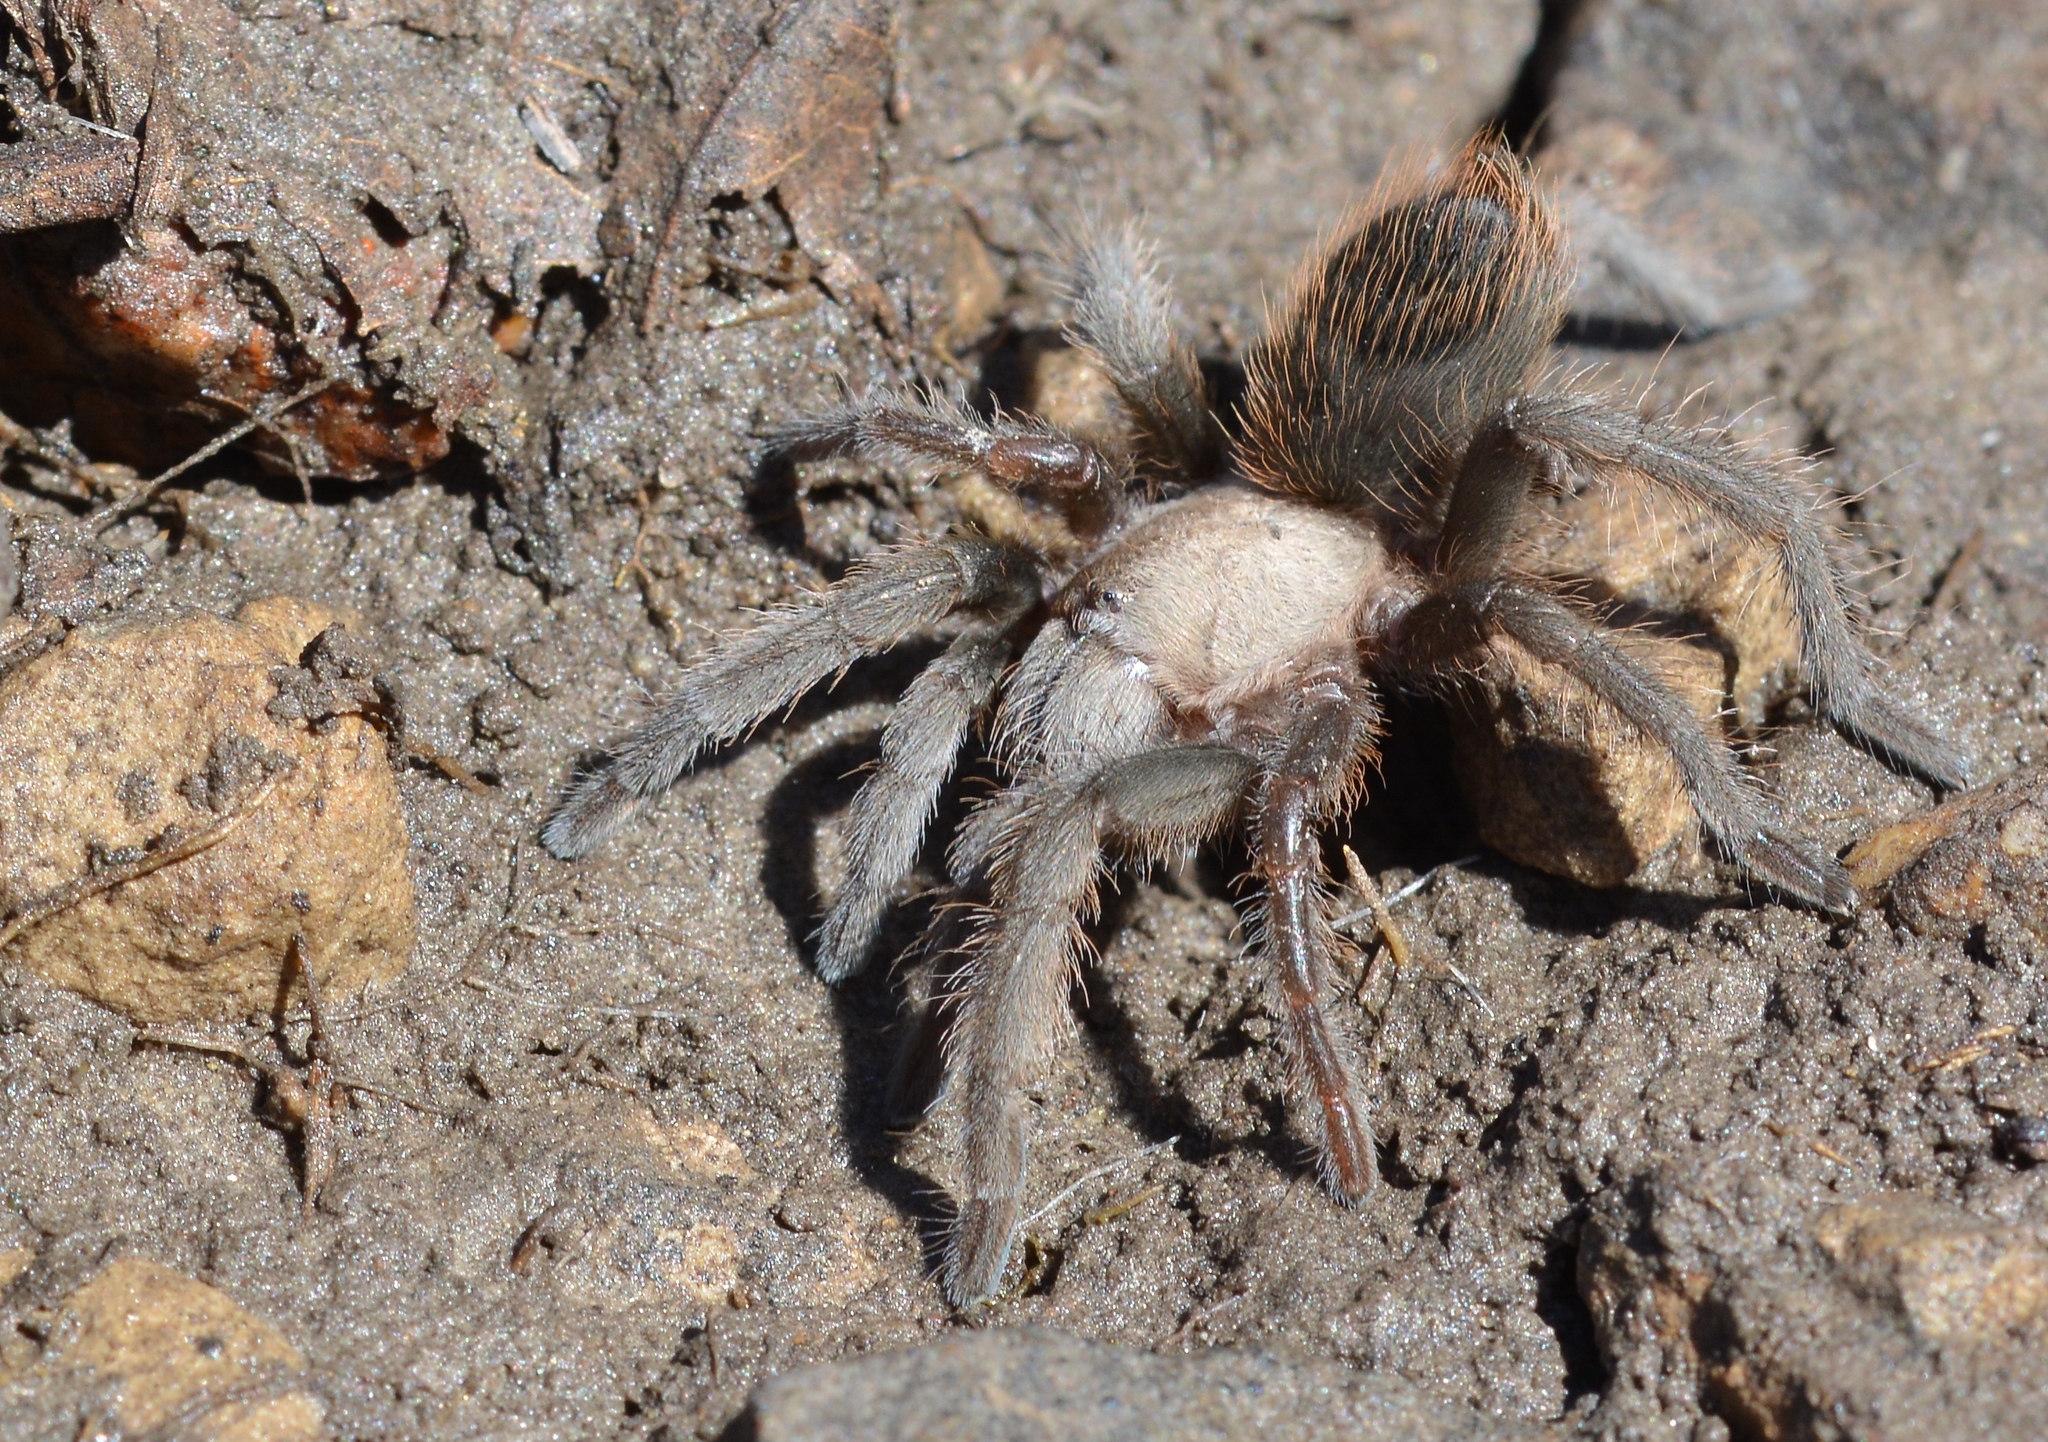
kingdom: Animalia
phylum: Arthropoda
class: Arachnida
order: Araneae
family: Theraphosidae
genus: Aphonopelma
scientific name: Aphonopelma hentzi
